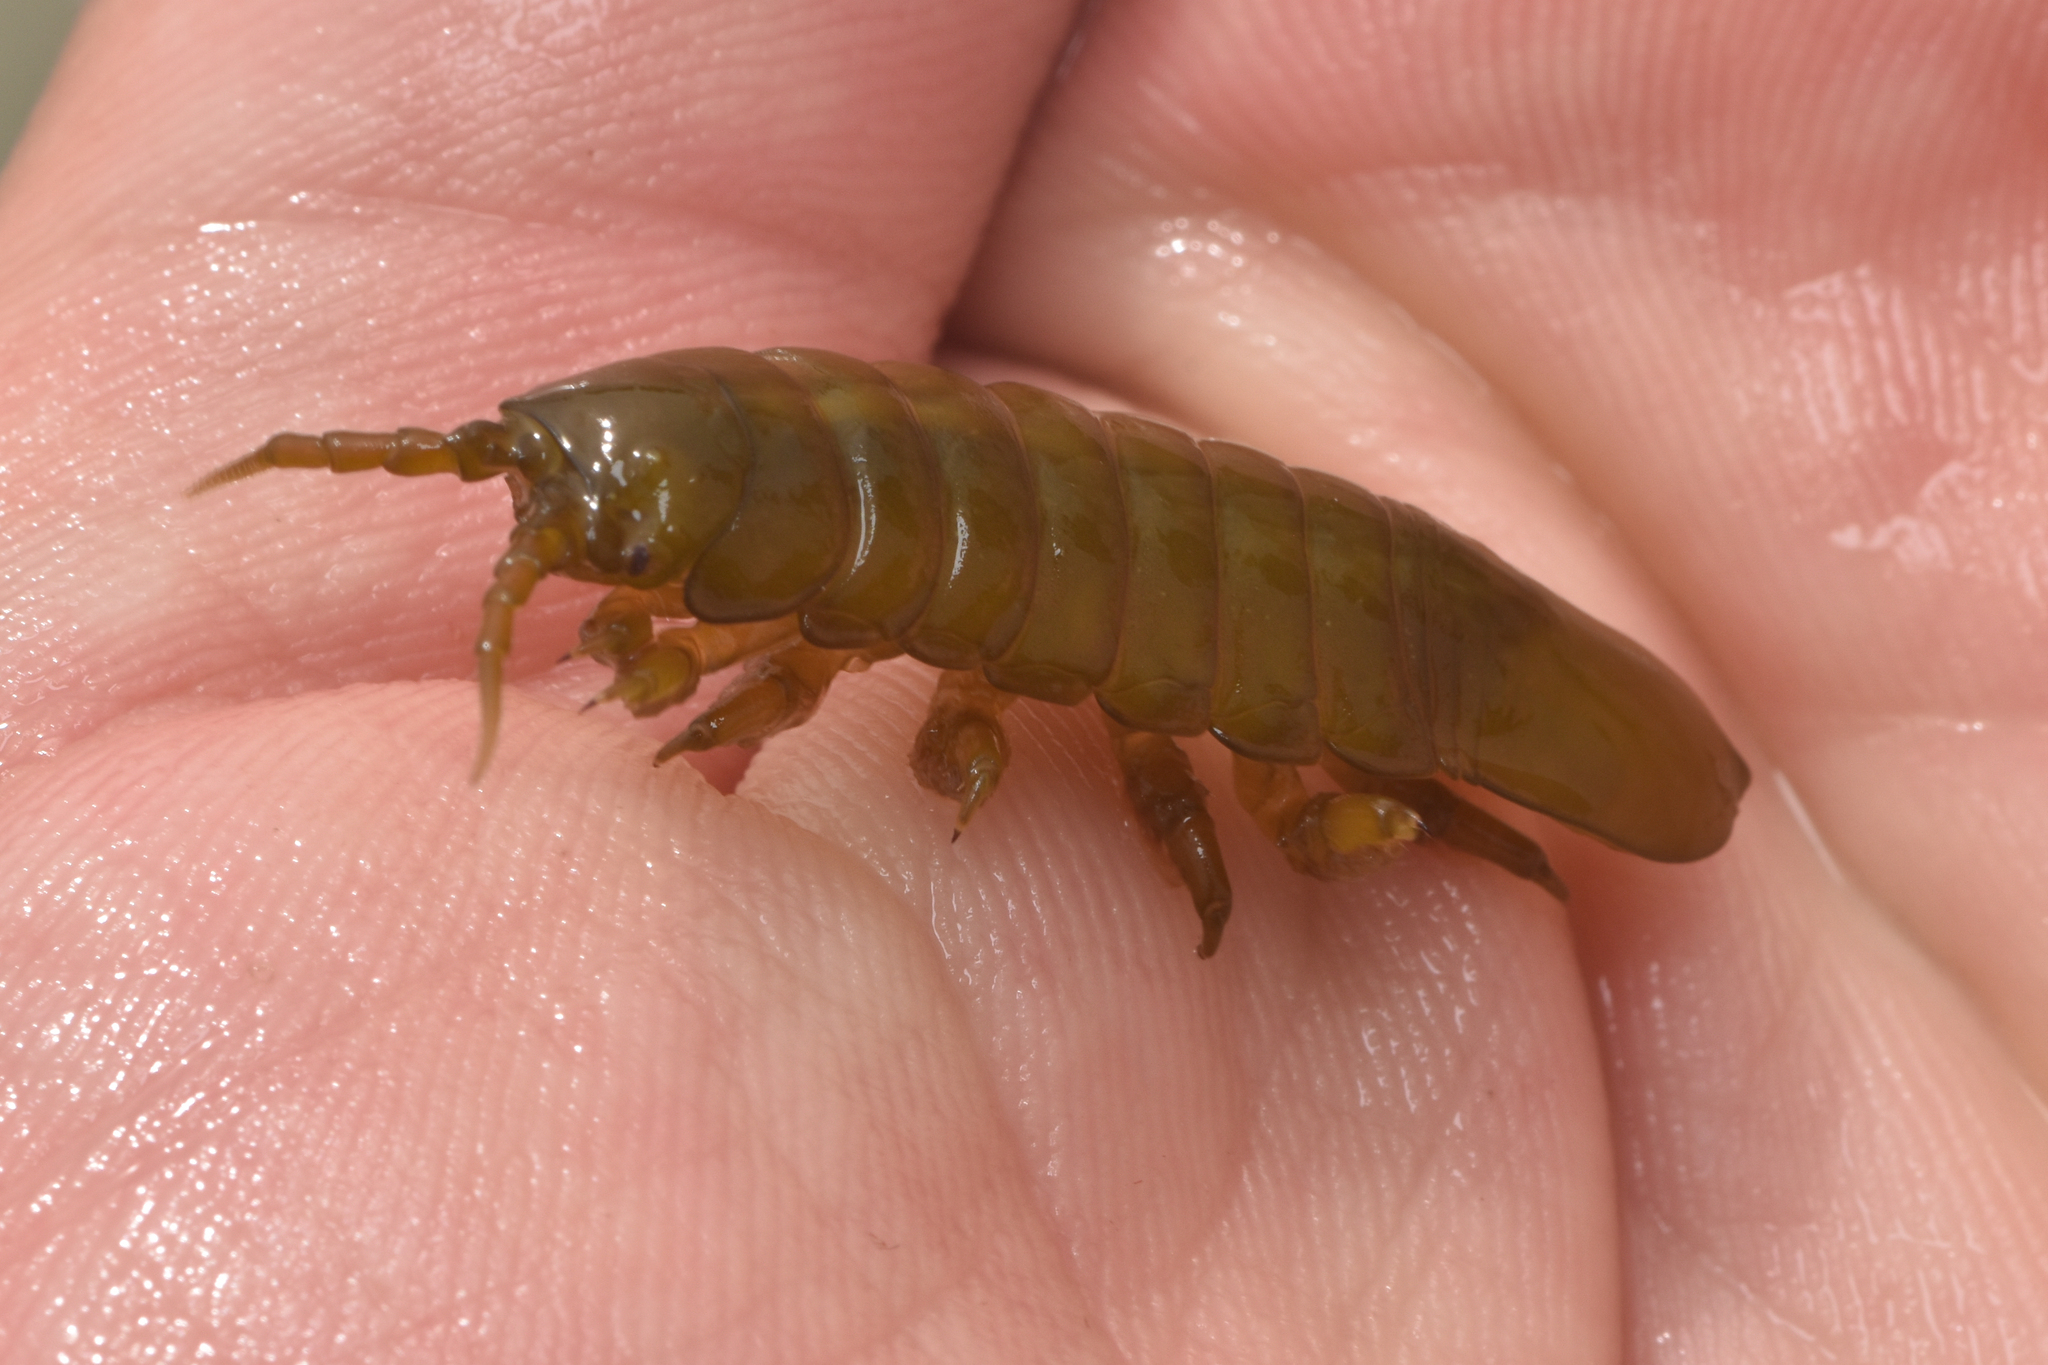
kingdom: Animalia
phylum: Arthropoda
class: Malacostraca
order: Isopoda
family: Idoteidae
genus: Pentidotea
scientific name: Pentidotea wosnesenskii
